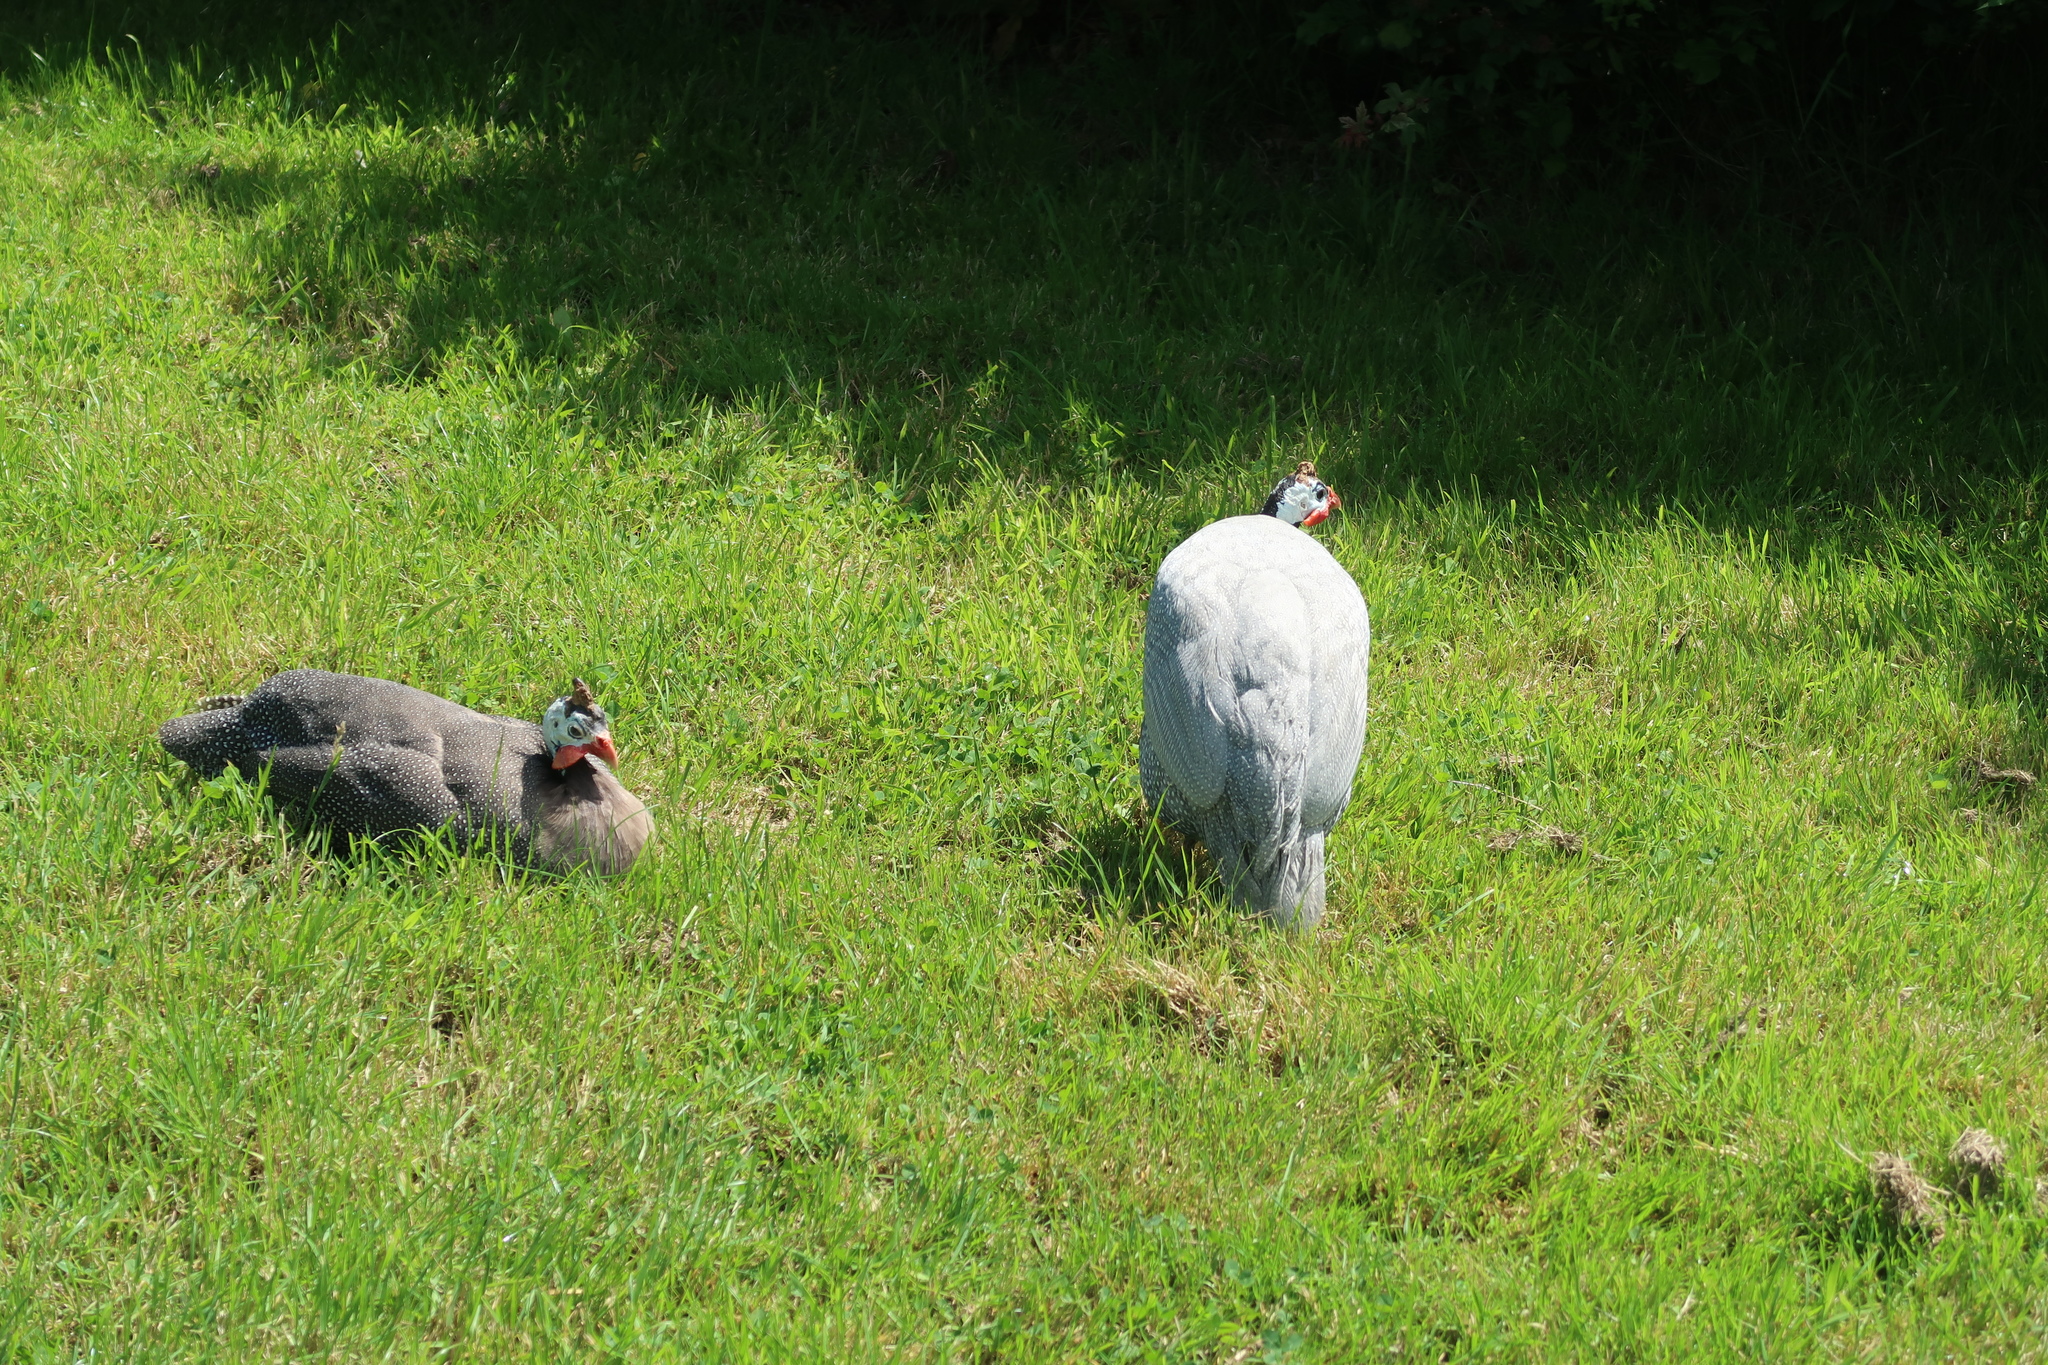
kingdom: Animalia
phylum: Chordata
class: Aves
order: Galliformes
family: Numididae
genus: Numida
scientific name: Numida meleagris
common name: Helmeted guineafowl
